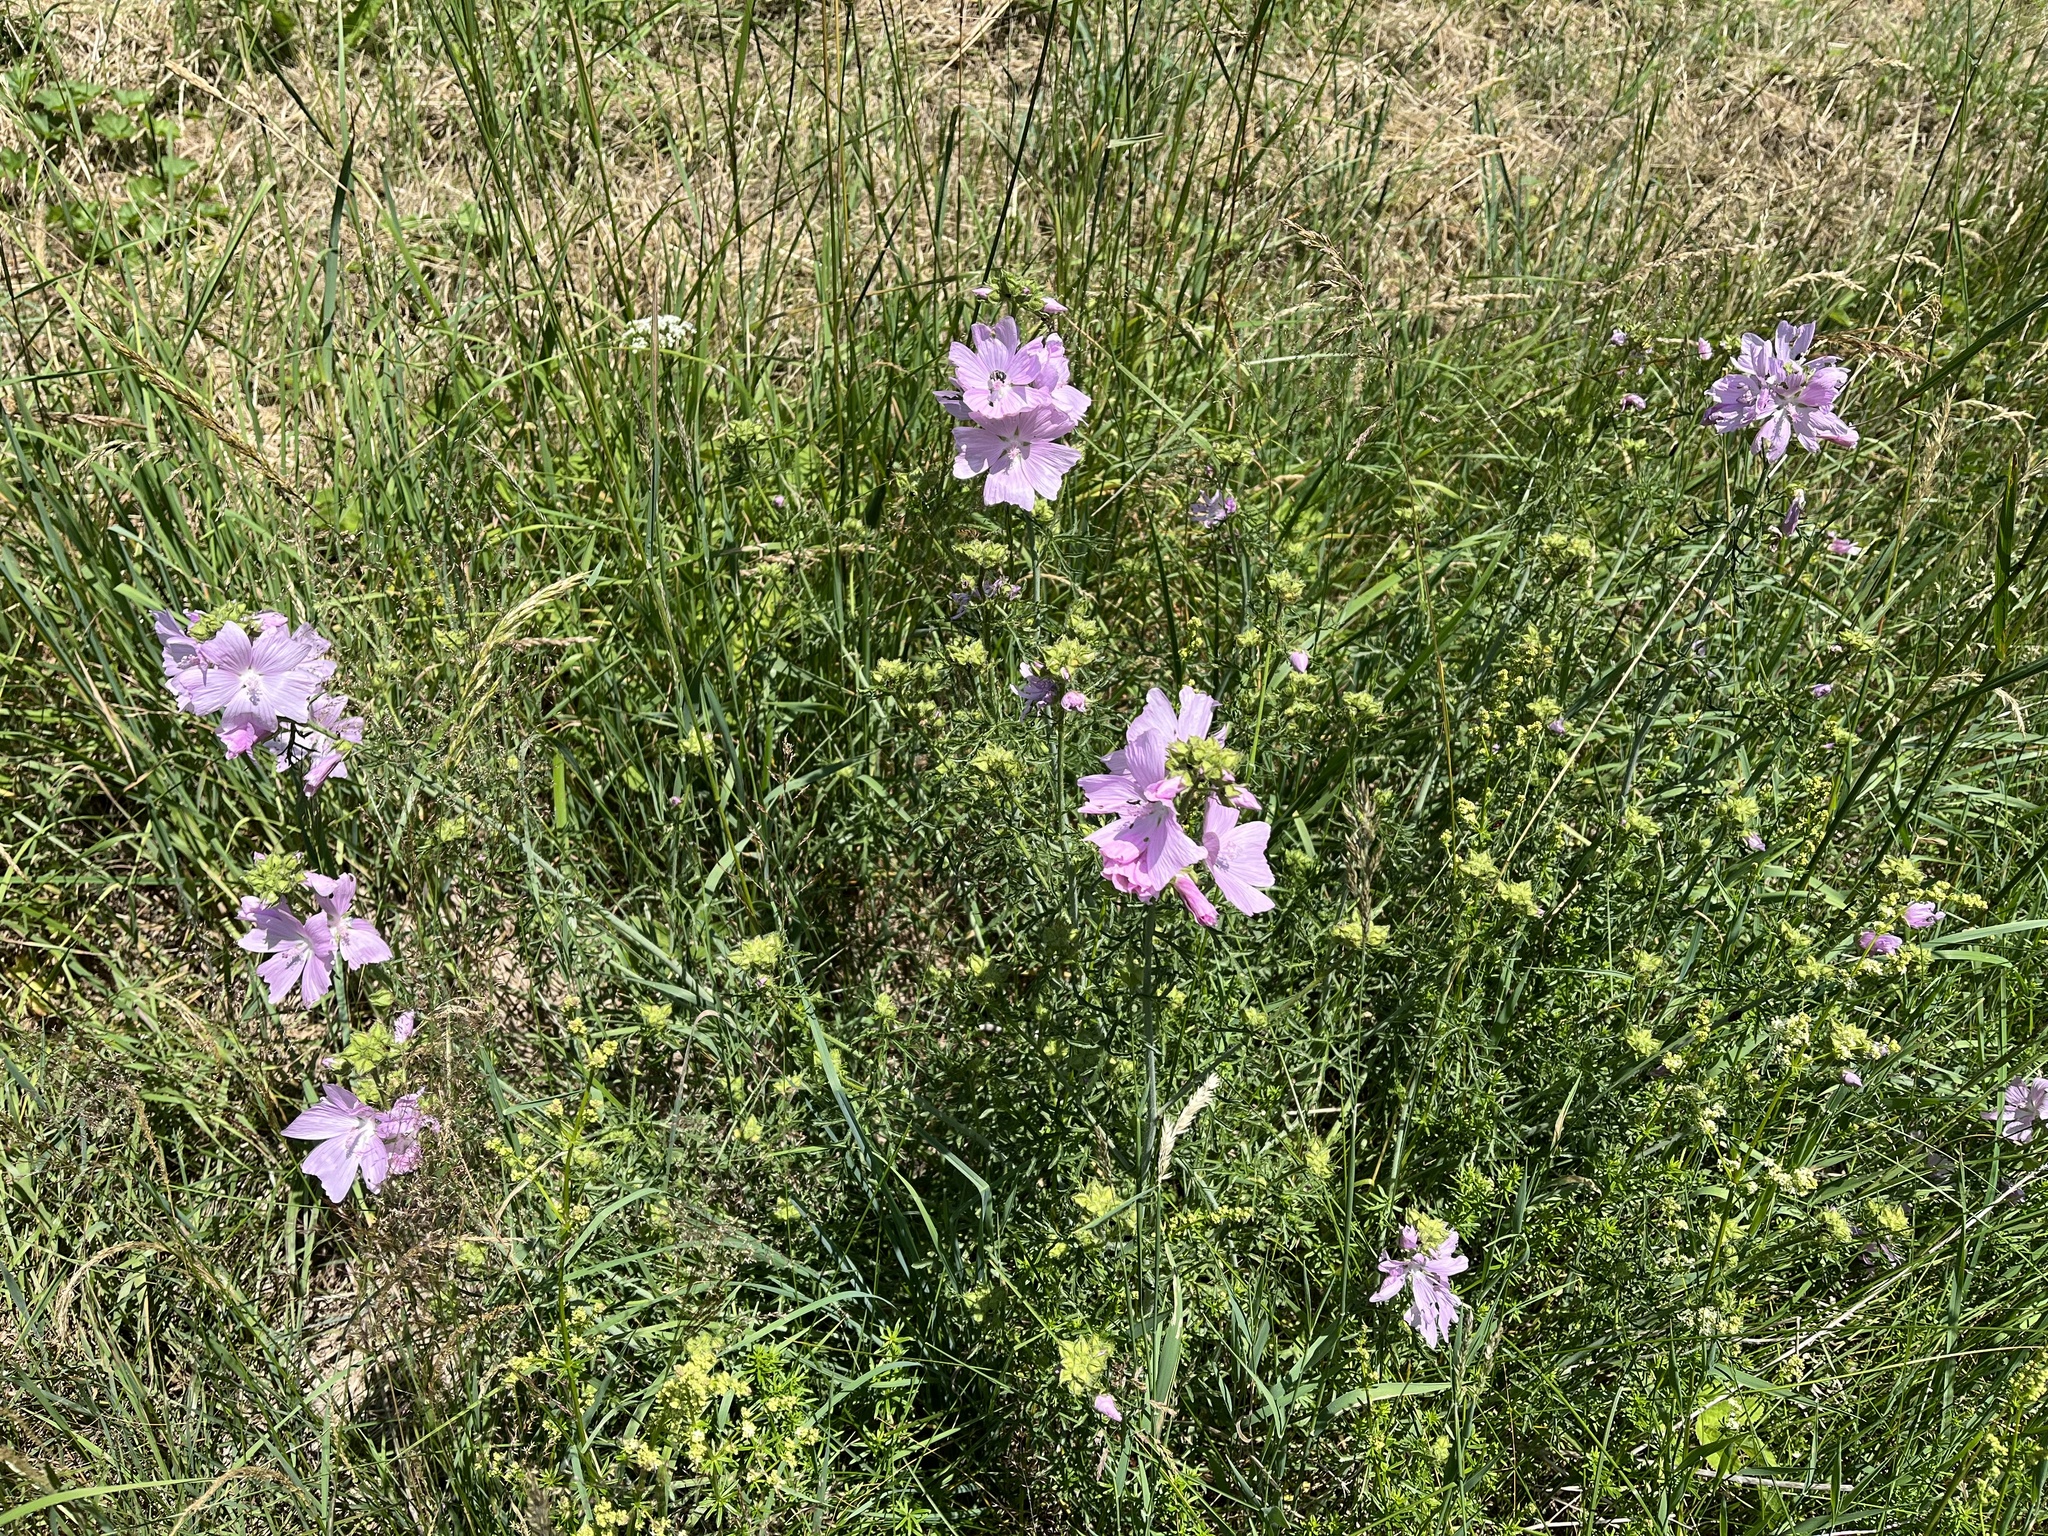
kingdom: Plantae
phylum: Tracheophyta
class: Magnoliopsida
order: Malvales
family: Malvaceae
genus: Malva
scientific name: Malva moschata
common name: Musk mallow
